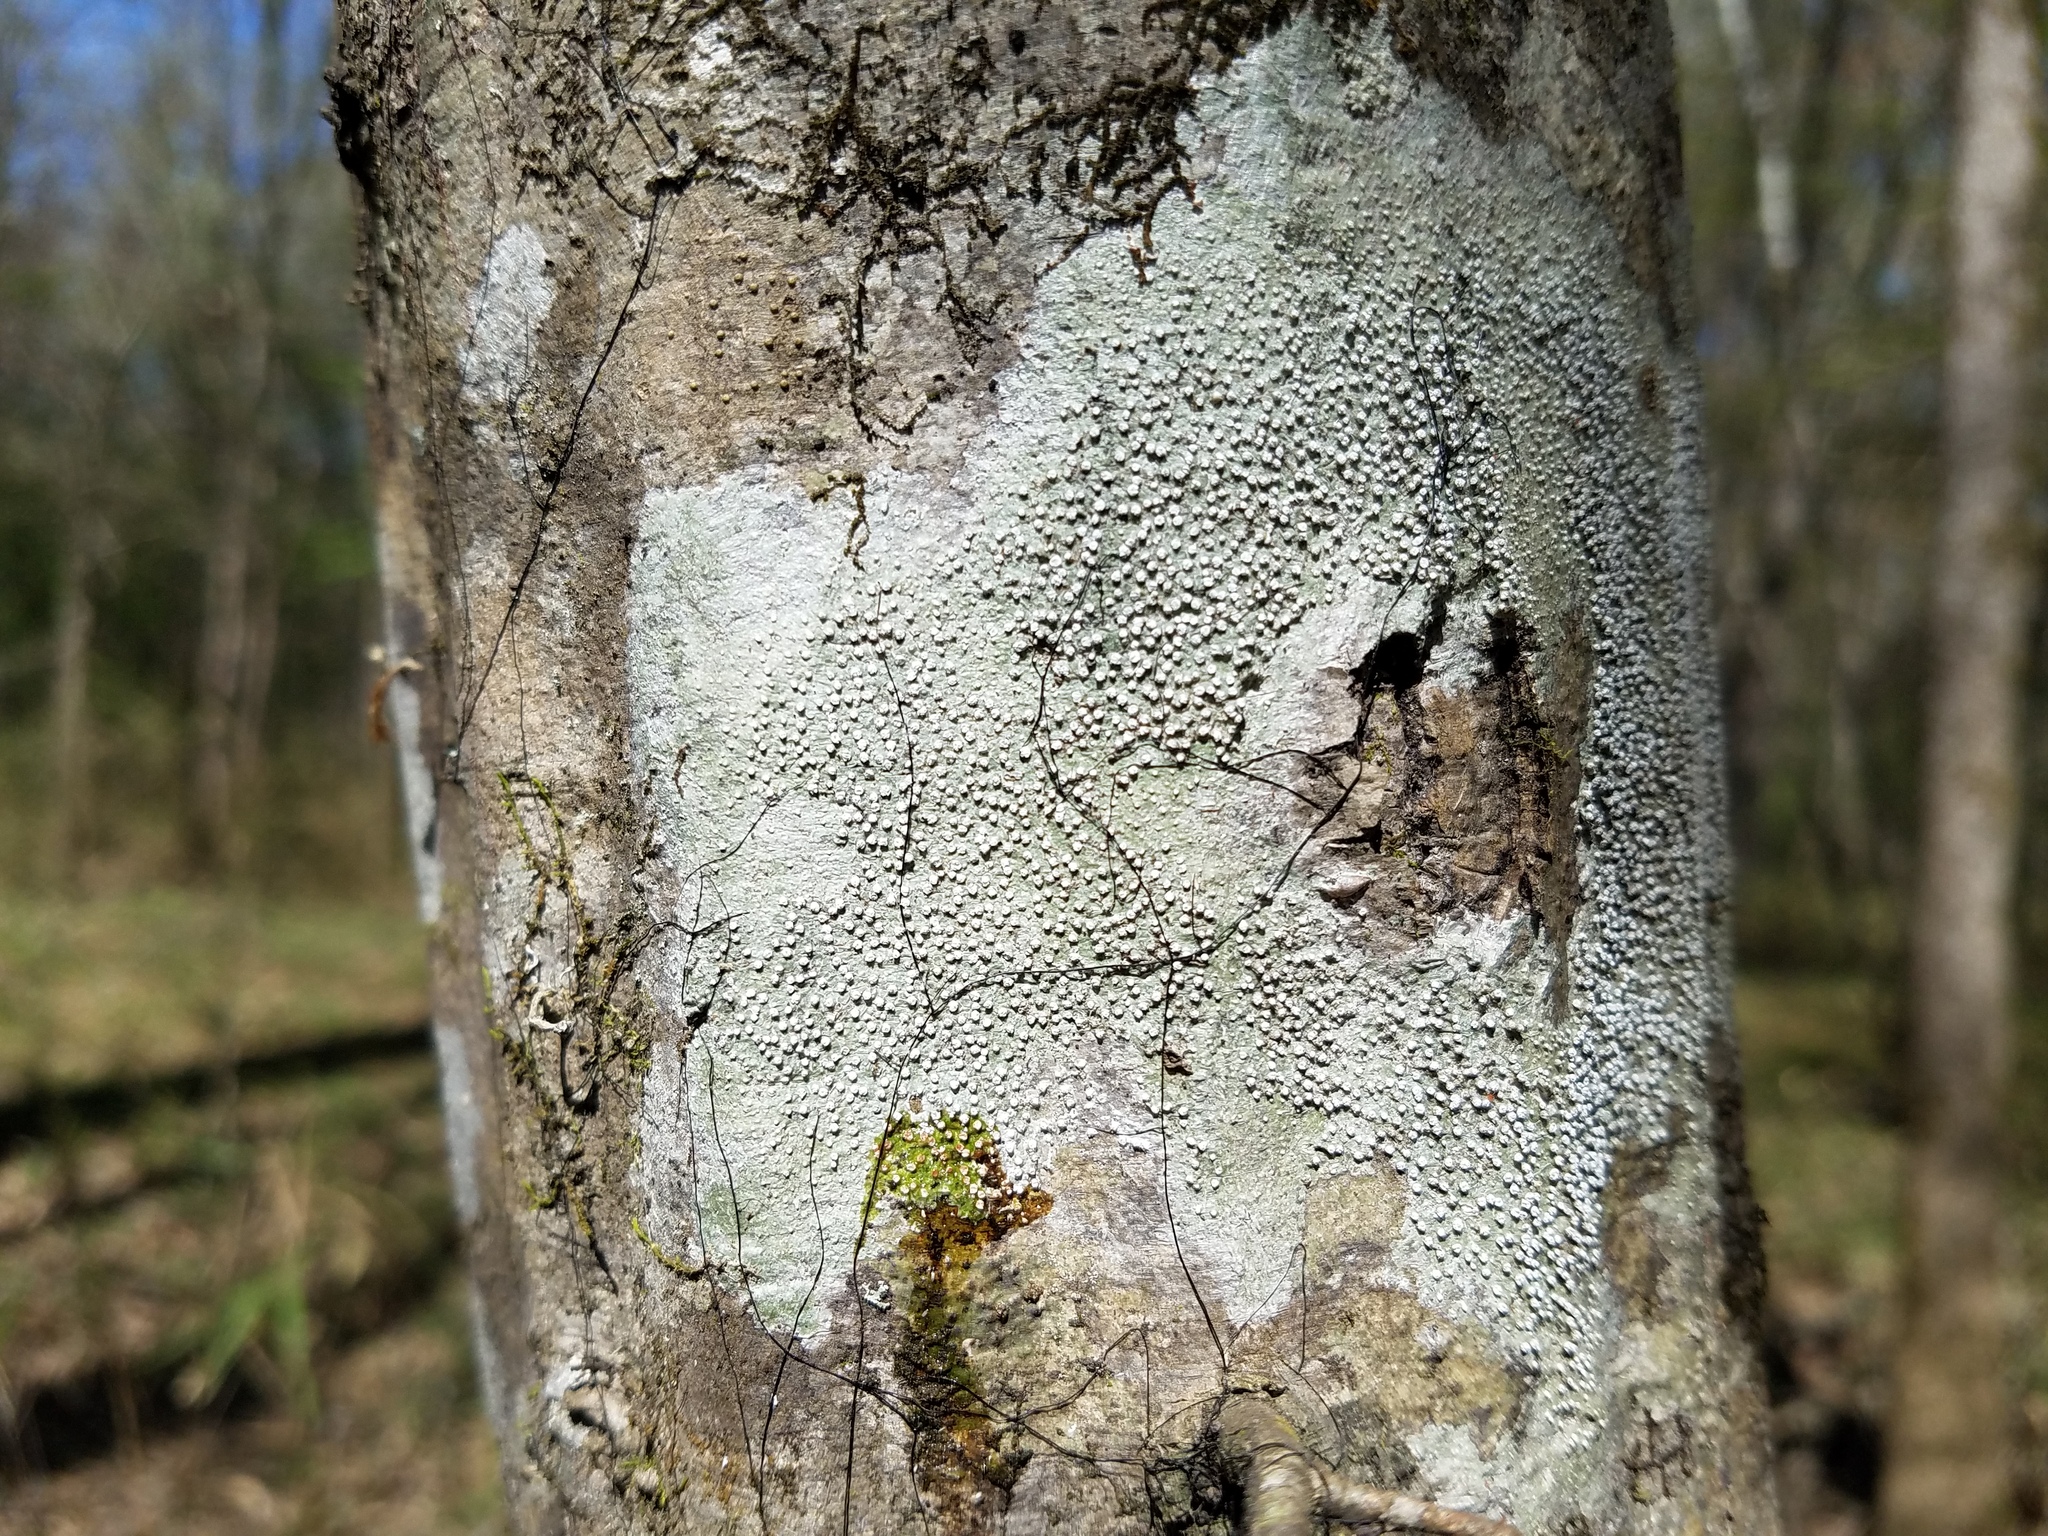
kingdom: Fungi
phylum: Ascomycota
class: Lecanoromycetes
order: Pertusariales
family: Pertusariaceae
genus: Lepra
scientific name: Lepra amara
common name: Bitter wart lichen
